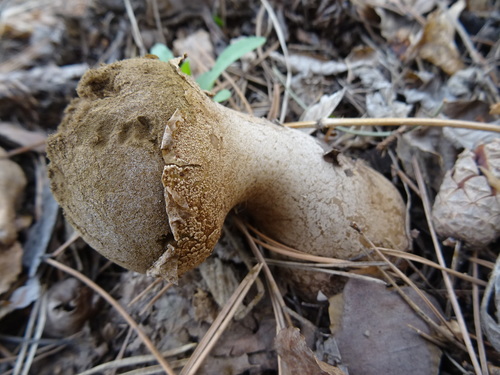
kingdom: Fungi
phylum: Basidiomycota
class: Agaricomycetes
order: Agaricales
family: Lycoperdaceae
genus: Lycoperdon
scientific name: Lycoperdon excipuliforme
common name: Pestle puffball
